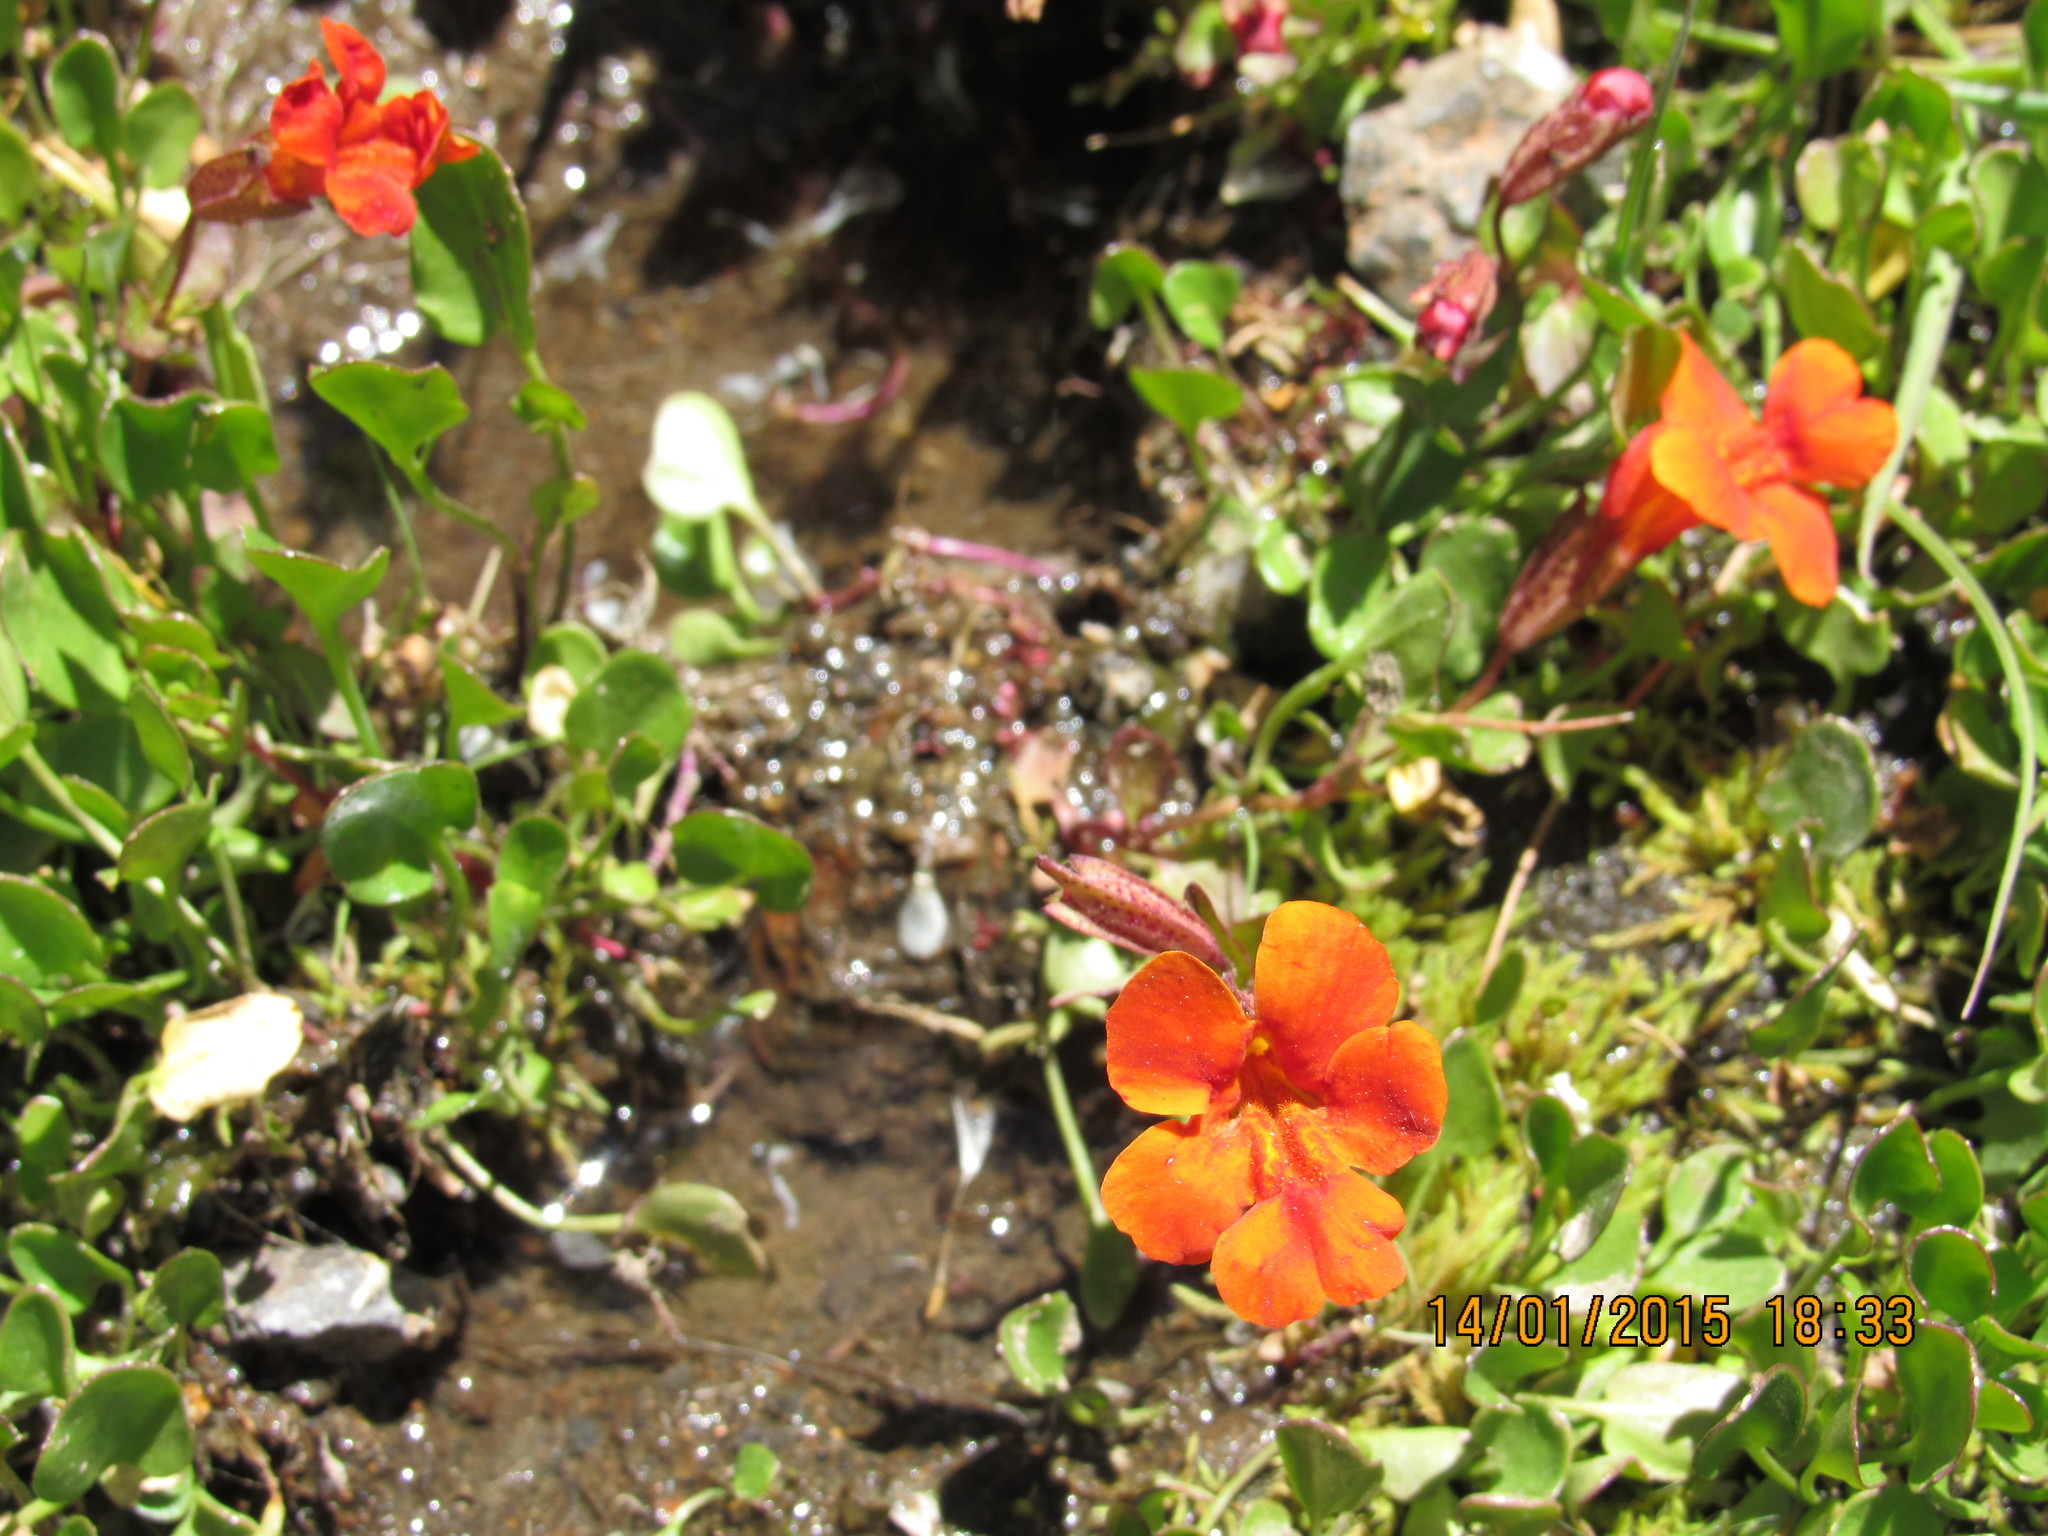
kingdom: Plantae
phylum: Tracheophyta
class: Magnoliopsida
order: Lamiales
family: Phrymaceae
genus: Erythranthe
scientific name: Erythranthe cuprea
